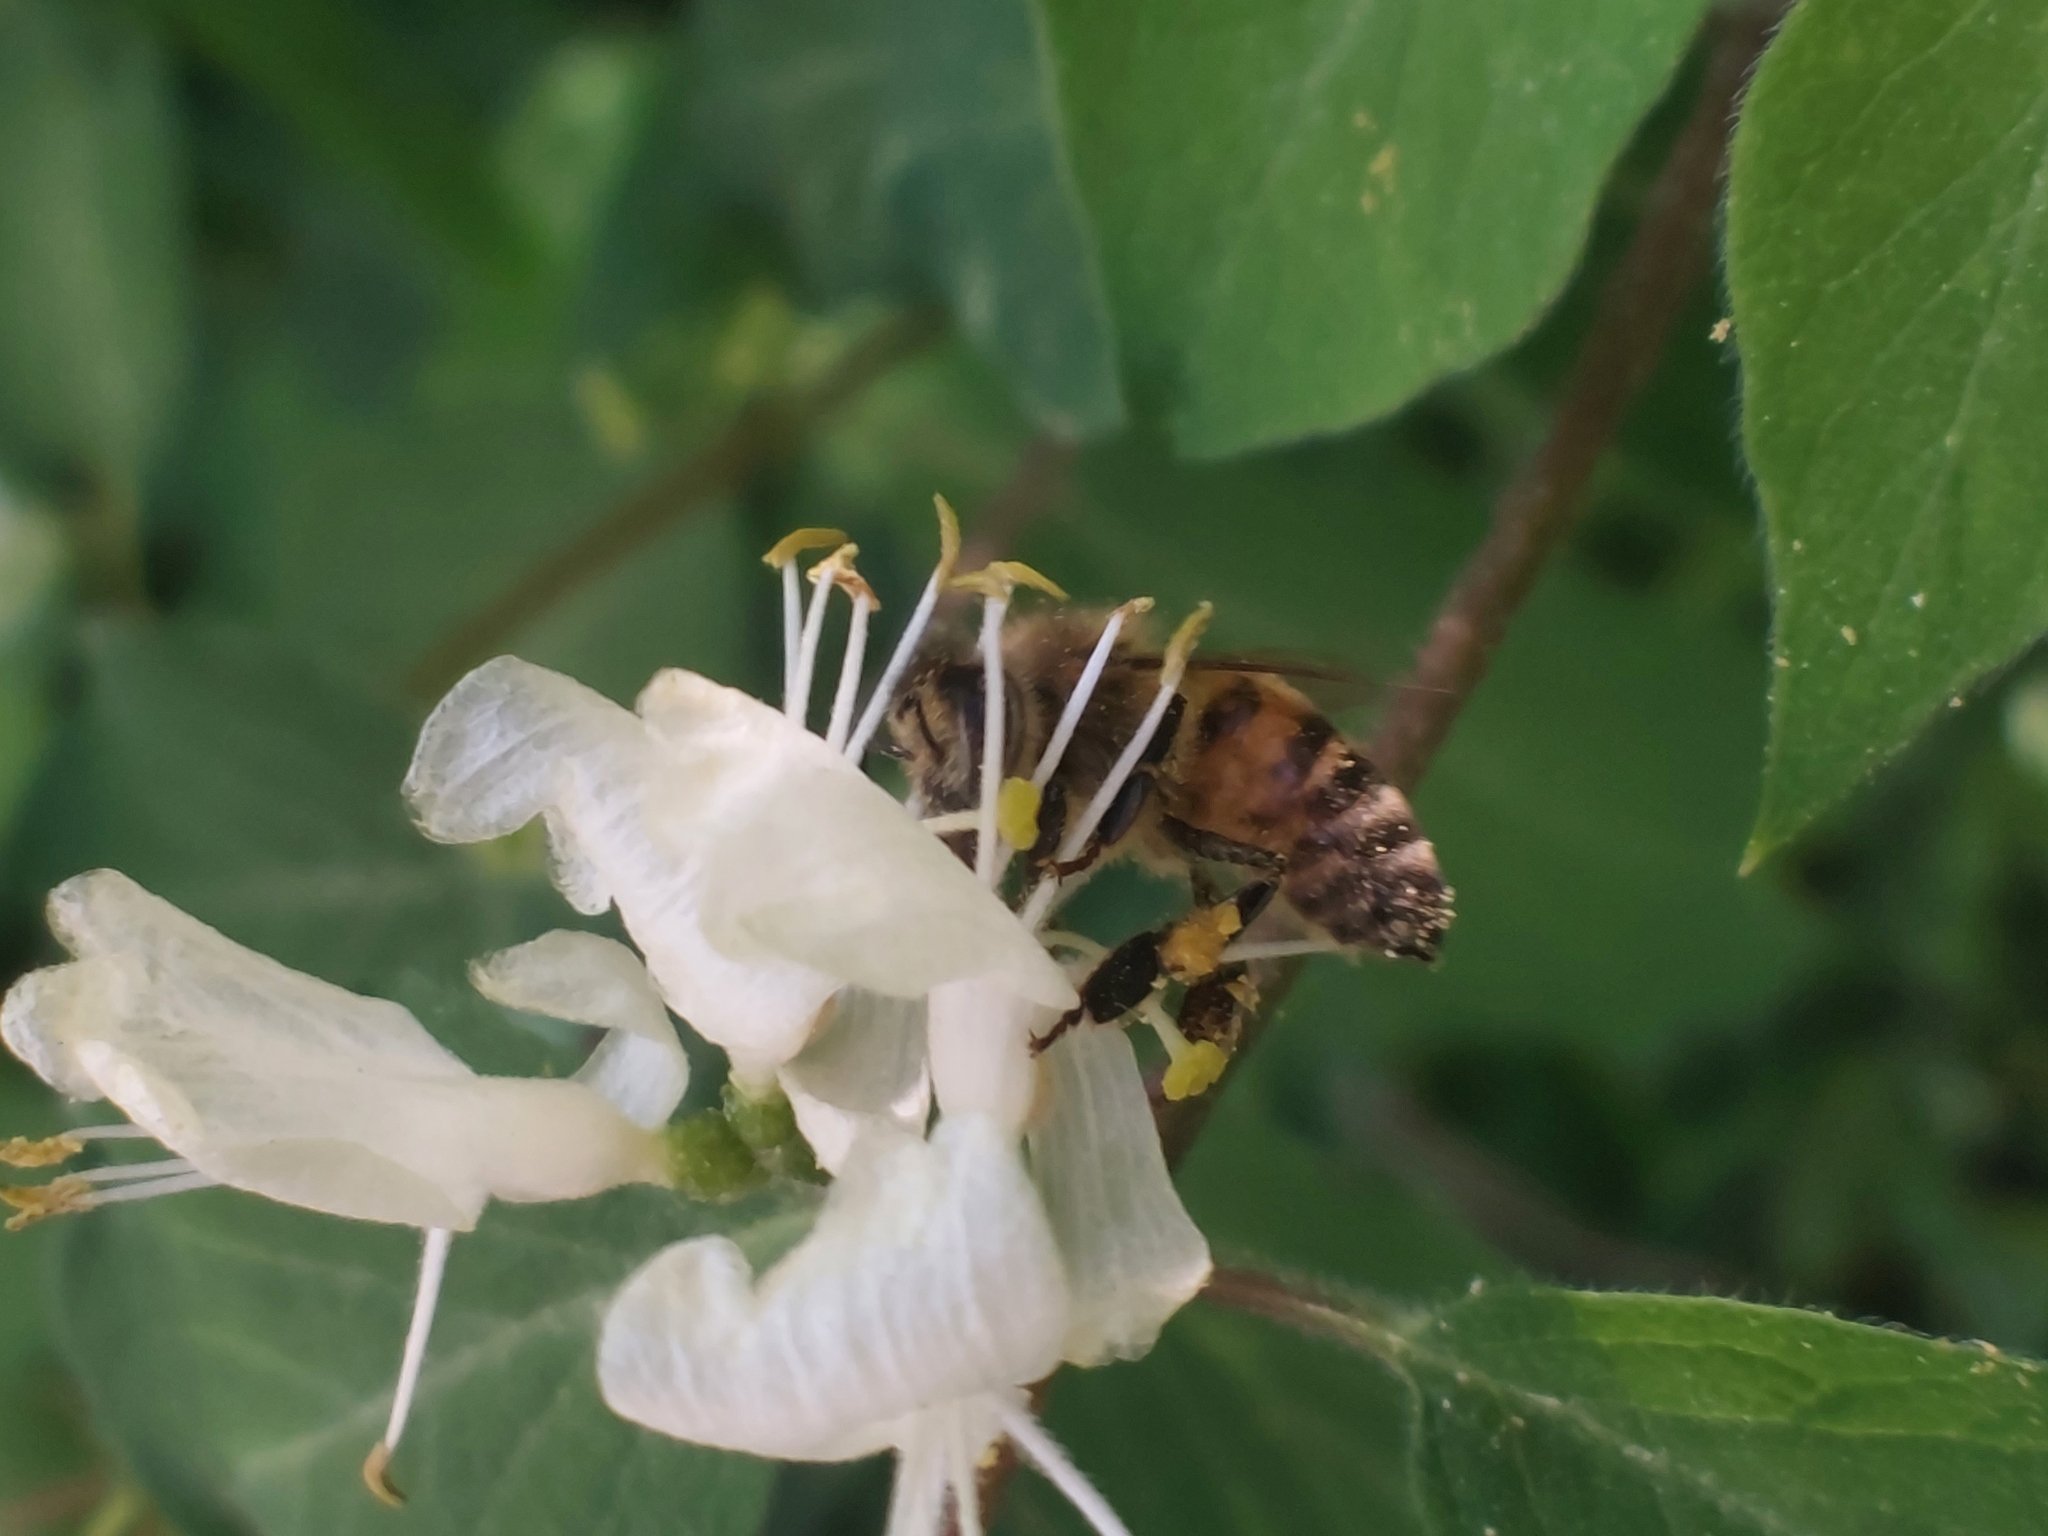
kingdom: Animalia
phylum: Arthropoda
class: Insecta
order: Hymenoptera
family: Apidae
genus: Apis
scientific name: Apis mellifera
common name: Honey bee
